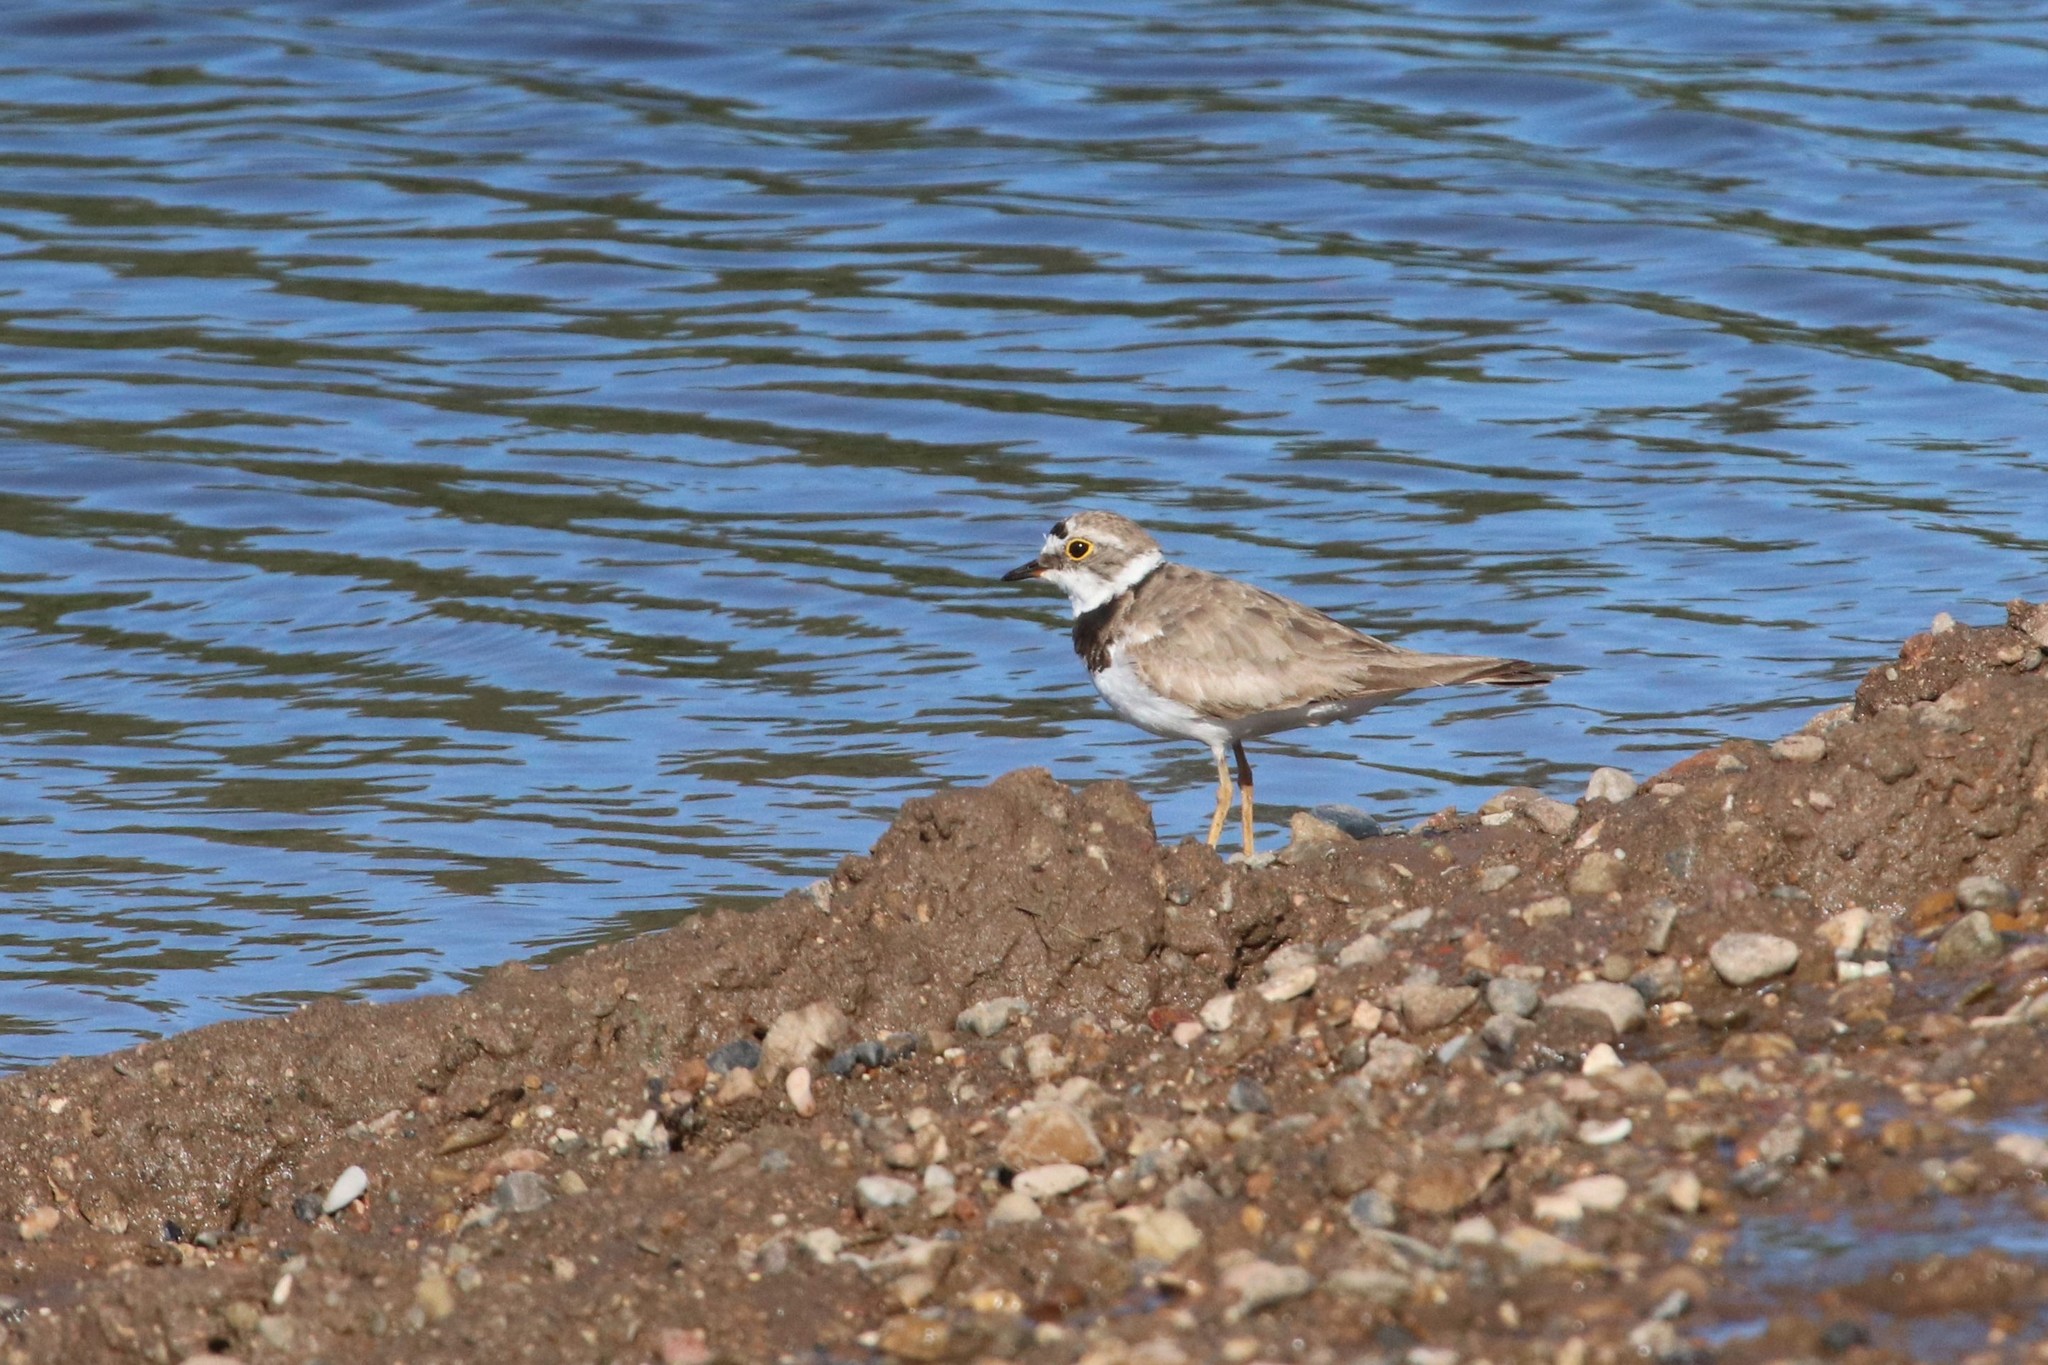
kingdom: Animalia
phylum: Chordata
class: Aves
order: Charadriiformes
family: Charadriidae
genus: Charadrius
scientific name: Charadrius dubius
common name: Little ringed plover
